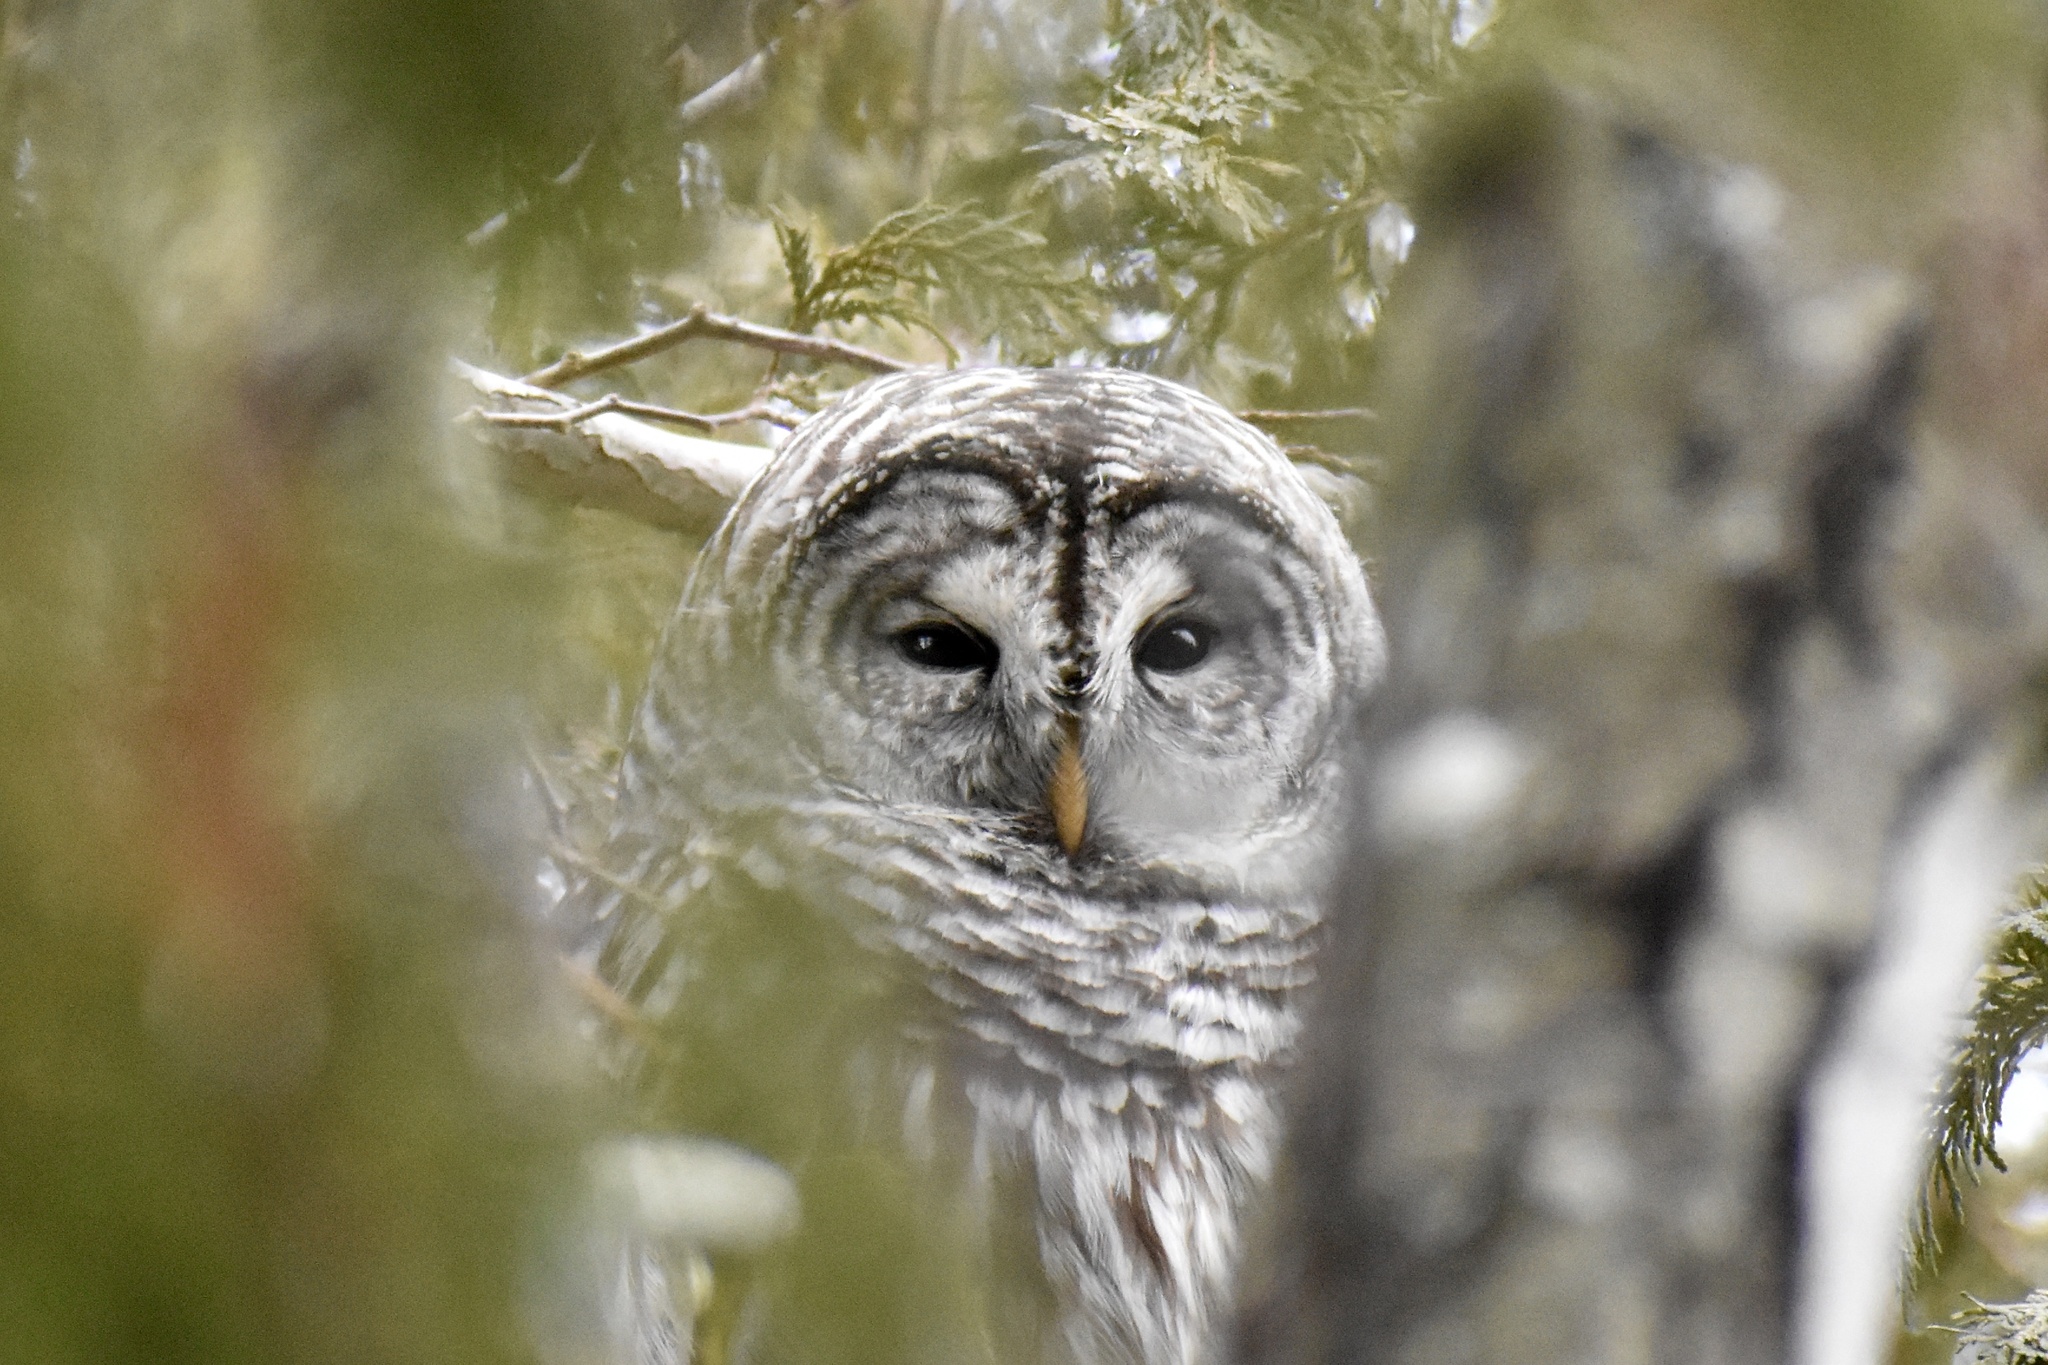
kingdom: Animalia
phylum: Chordata
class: Aves
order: Strigiformes
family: Strigidae
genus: Strix
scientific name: Strix varia
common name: Barred owl
